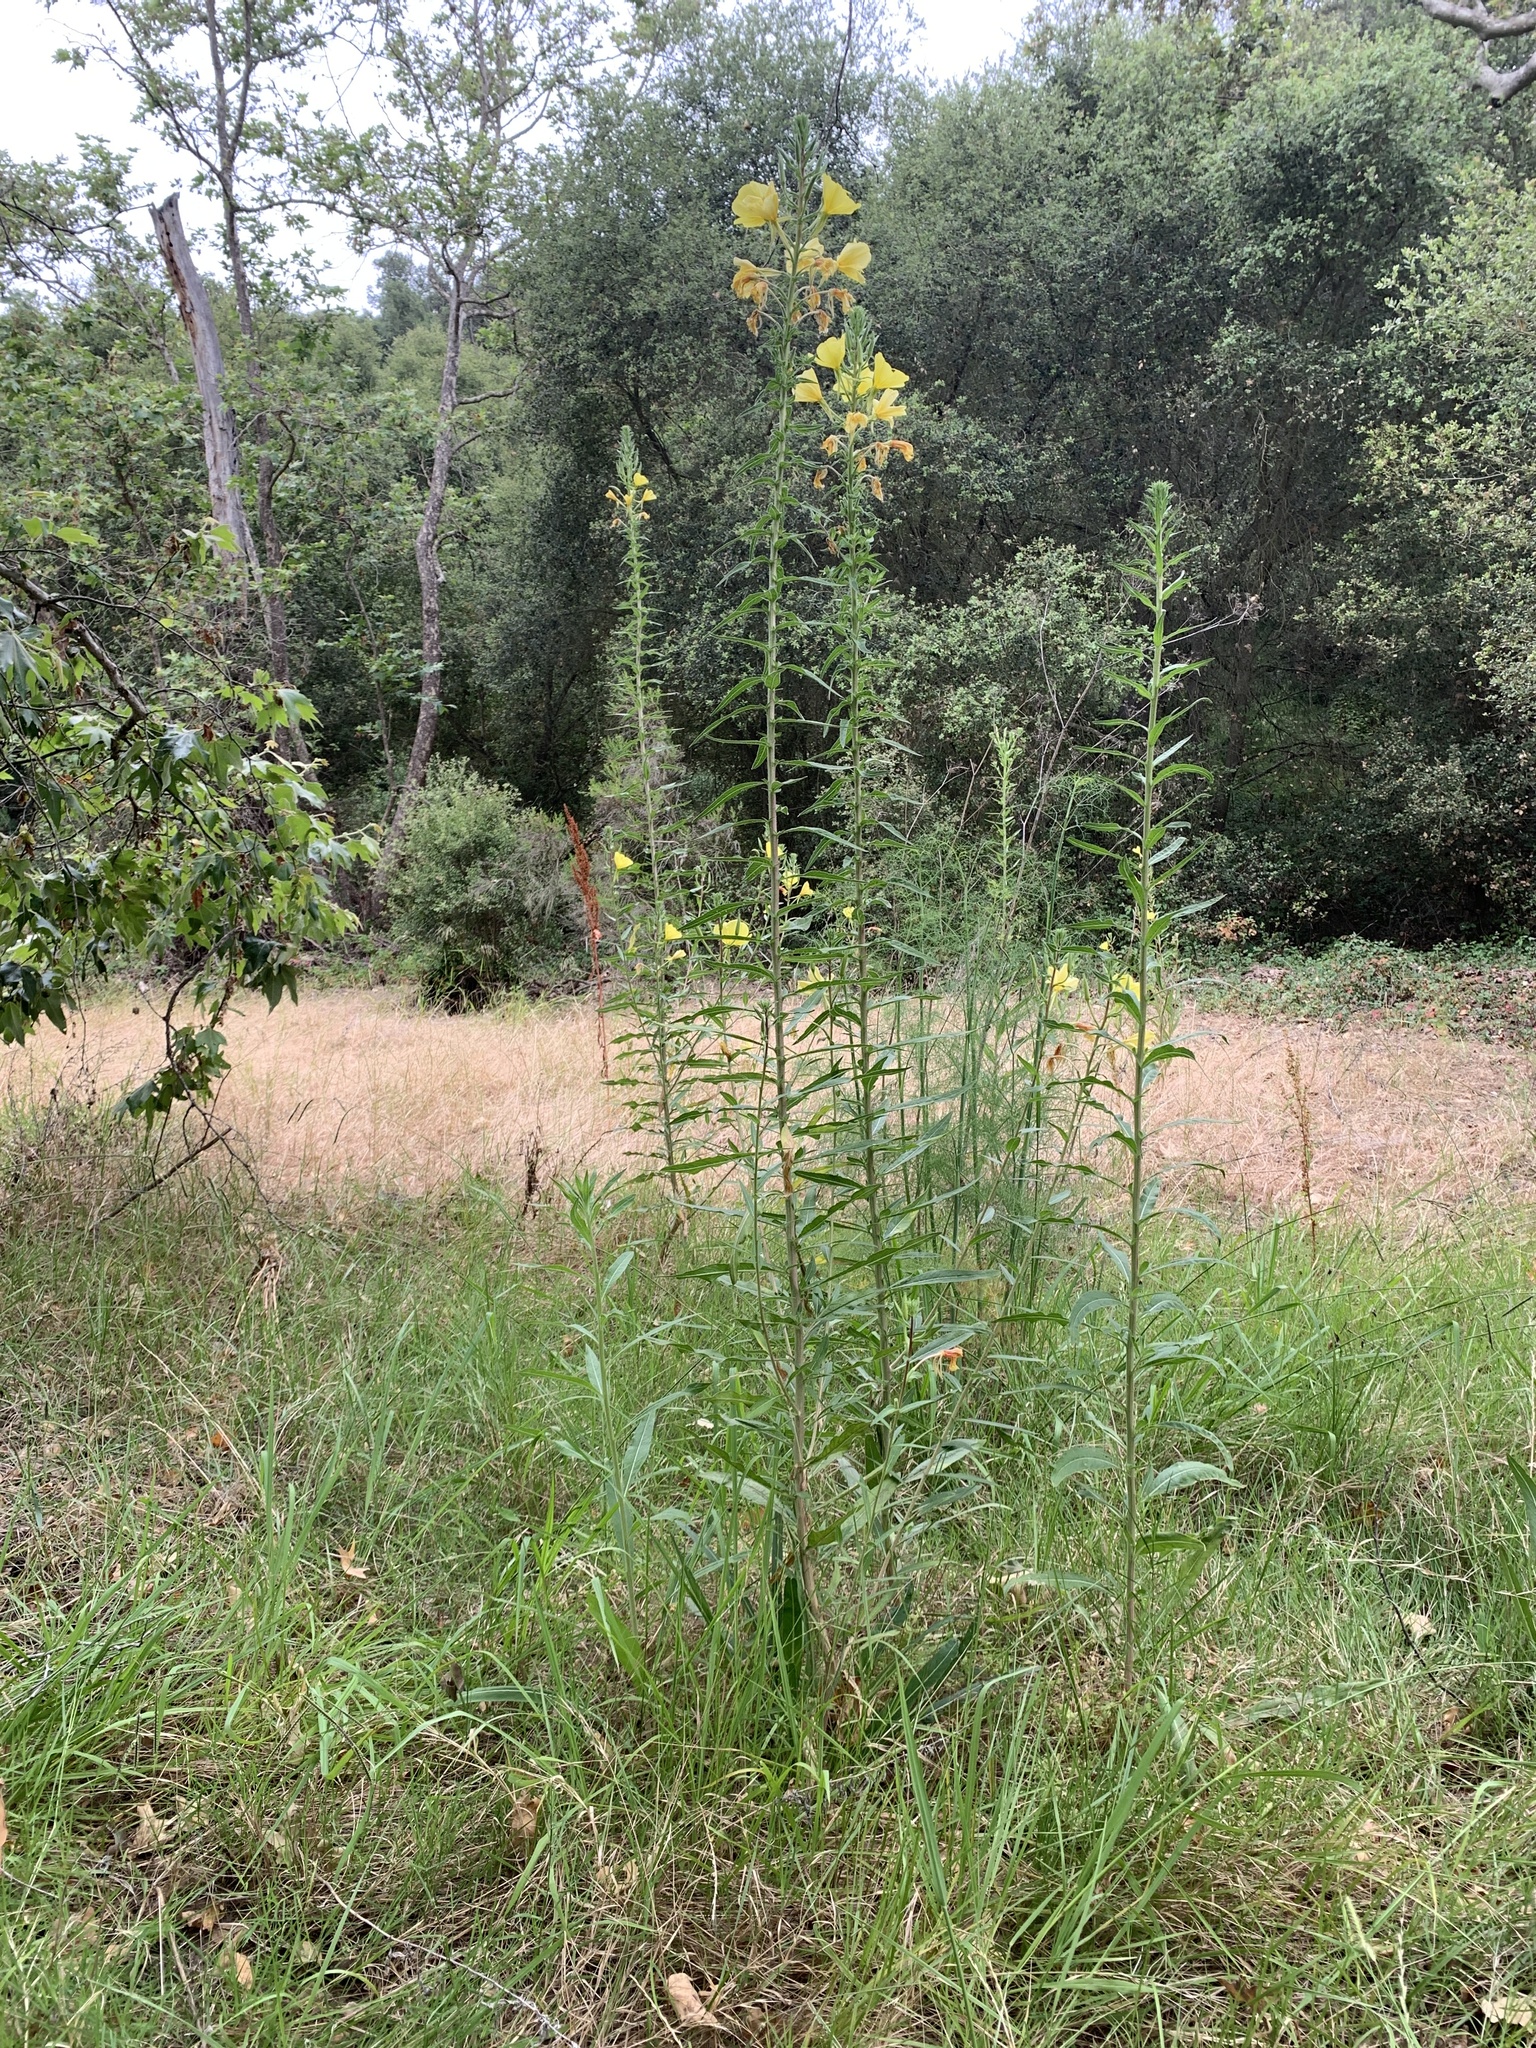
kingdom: Plantae
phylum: Tracheophyta
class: Magnoliopsida
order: Myrtales
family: Onagraceae
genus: Oenothera
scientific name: Oenothera elata
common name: Hooker's evening-primrose
